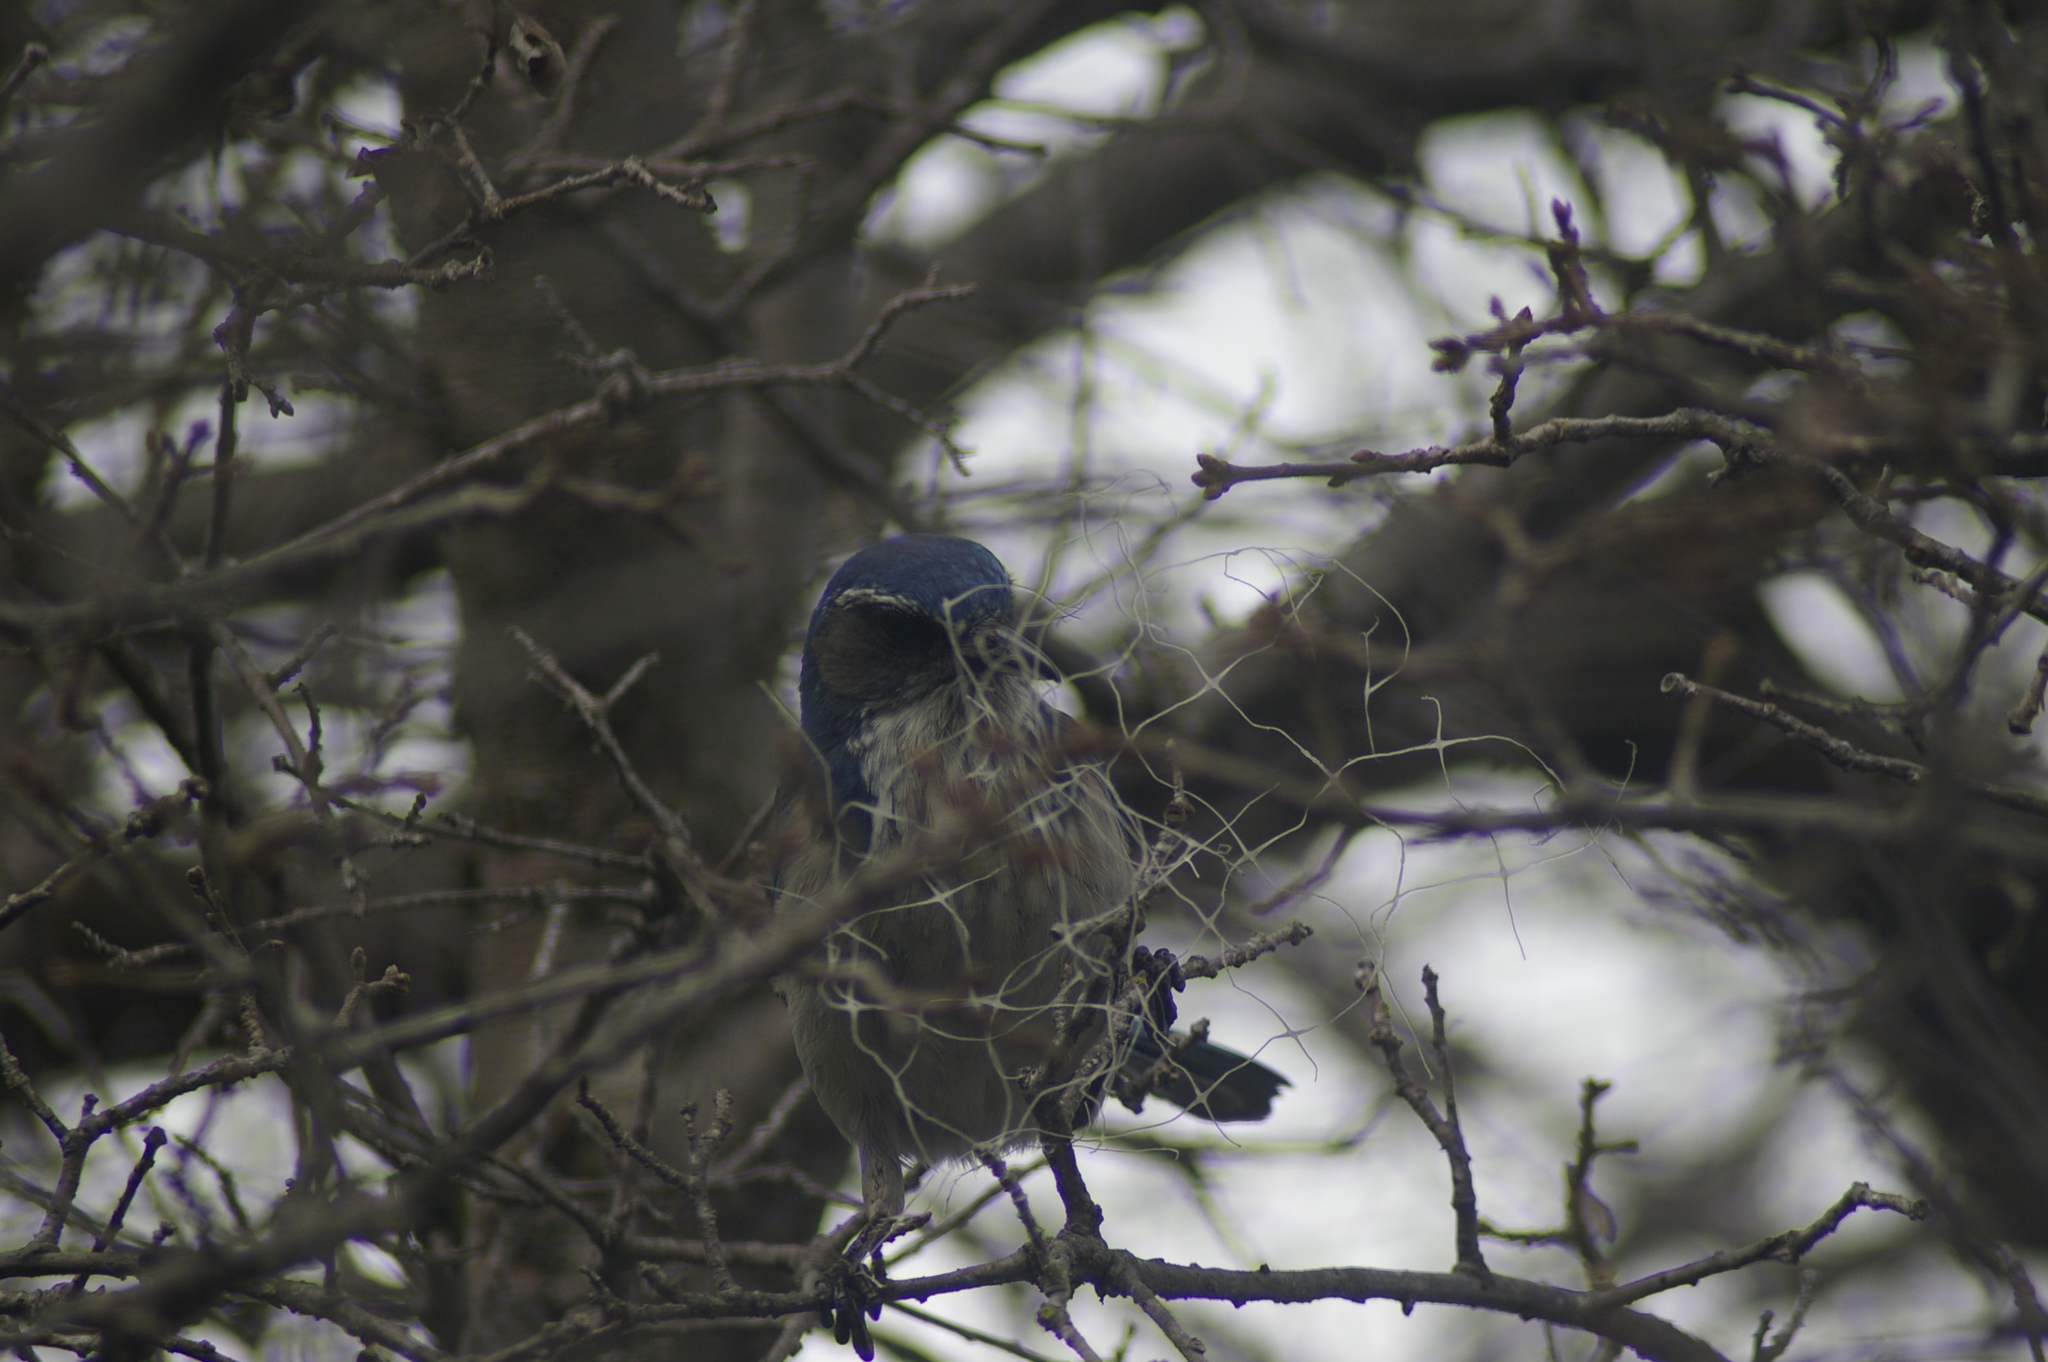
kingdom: Animalia
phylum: Chordata
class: Aves
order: Passeriformes
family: Corvidae
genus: Aphelocoma
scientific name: Aphelocoma californica
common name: California scrub-jay
